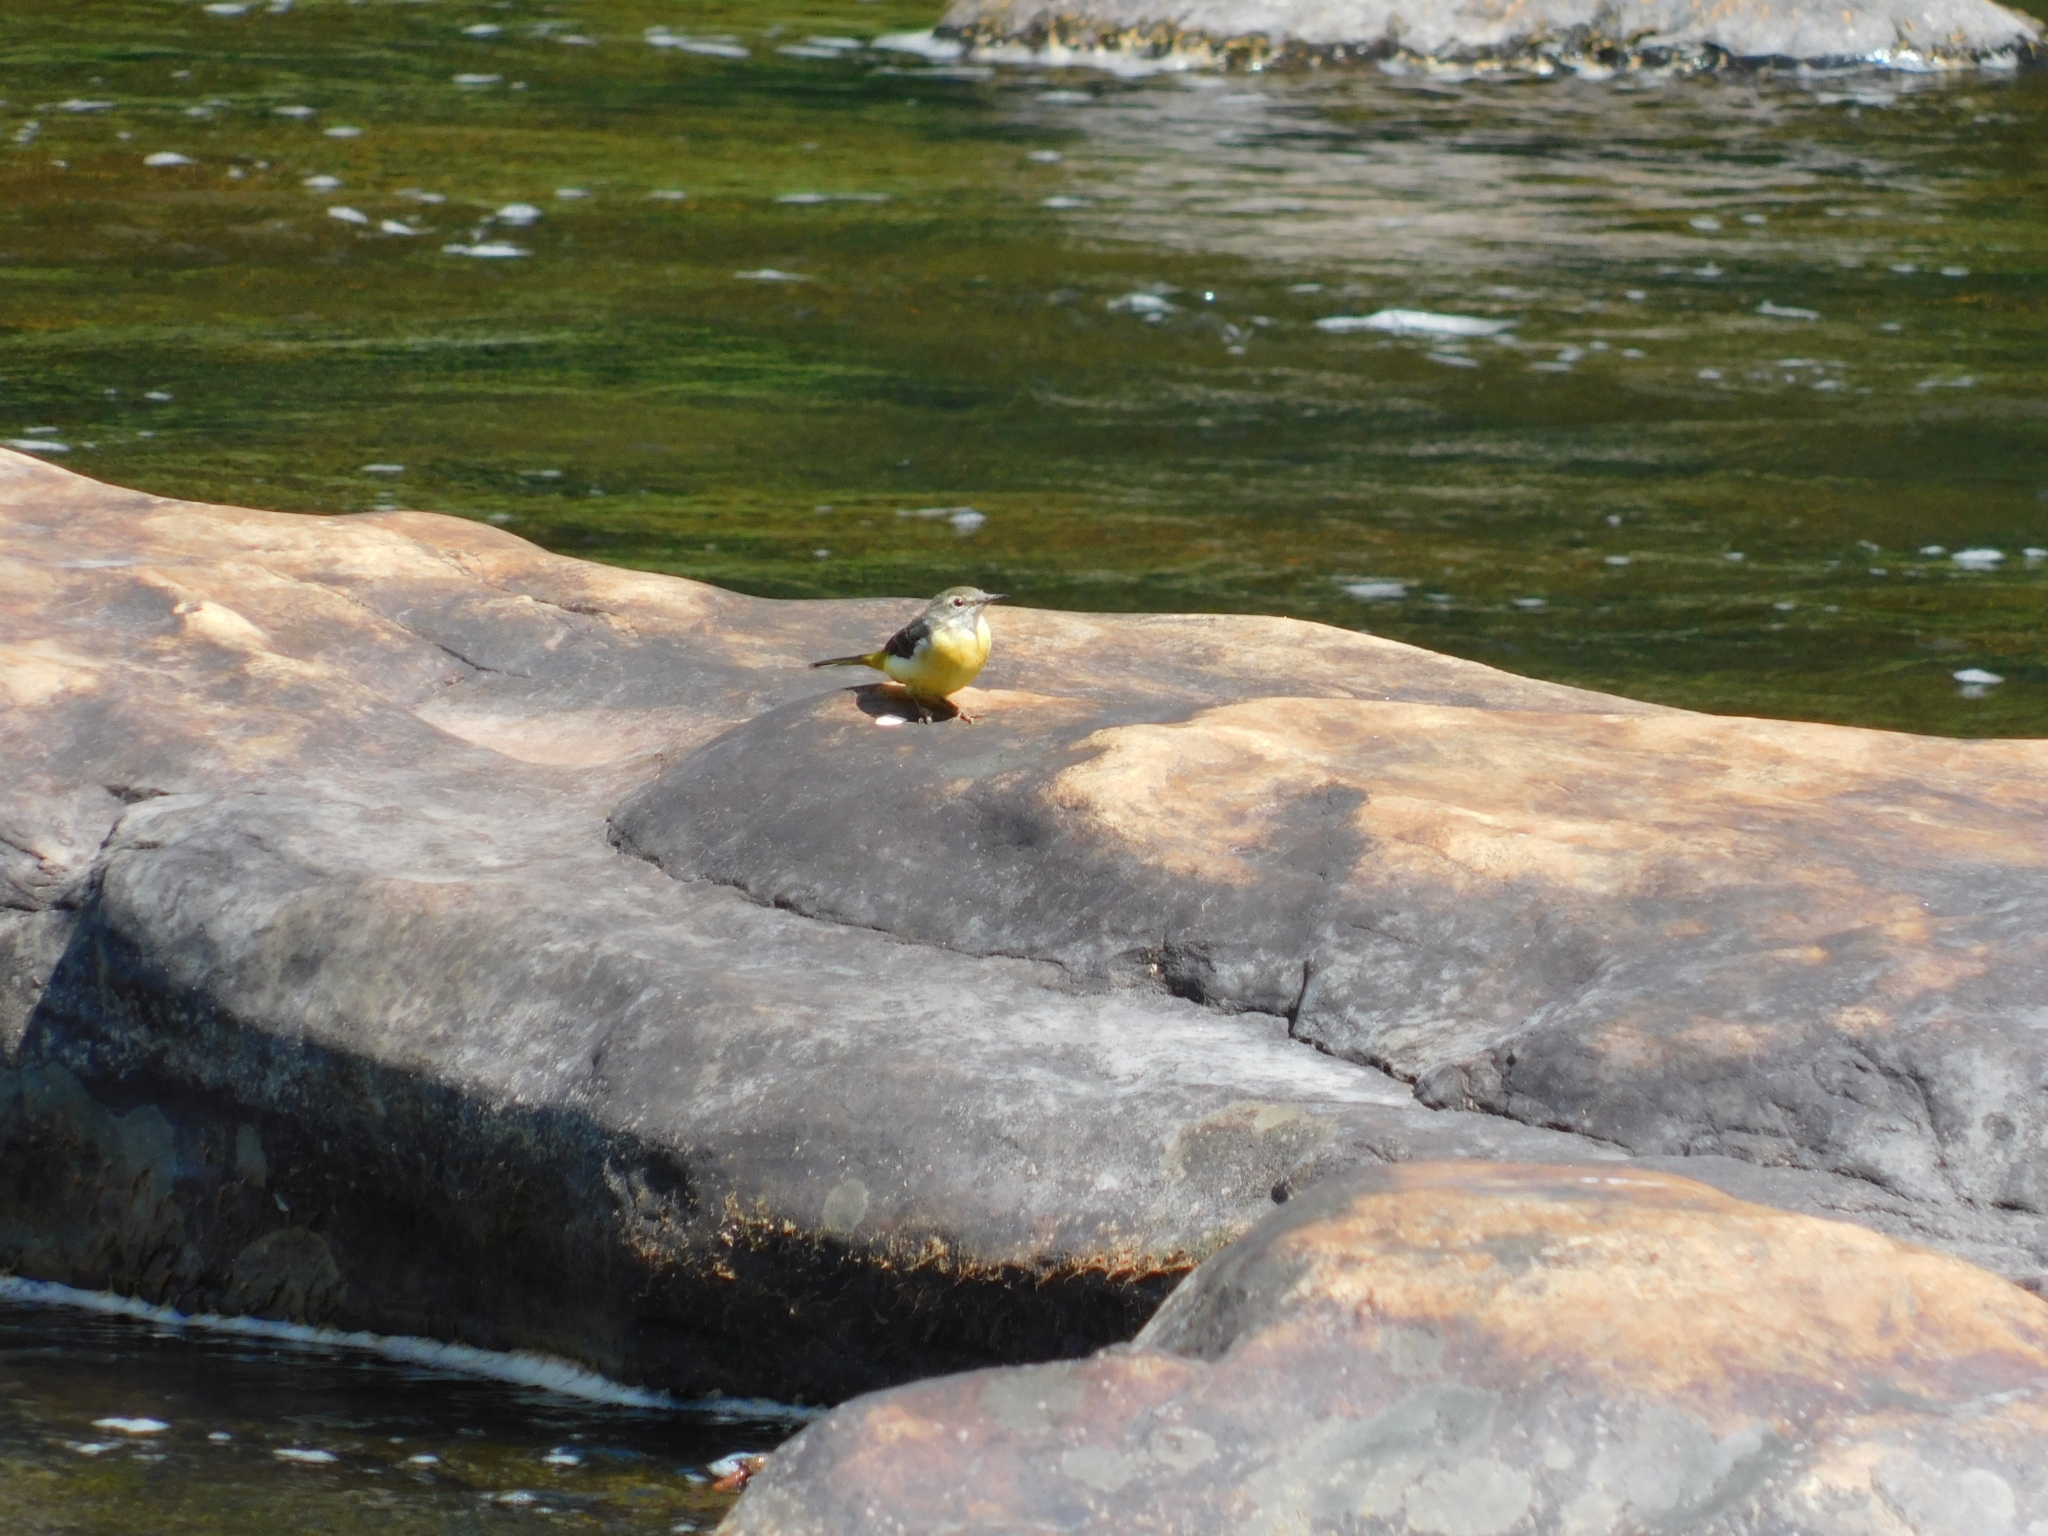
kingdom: Animalia
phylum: Chordata
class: Aves
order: Passeriformes
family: Motacillidae
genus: Motacilla
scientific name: Motacilla cinerea
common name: Grey wagtail
